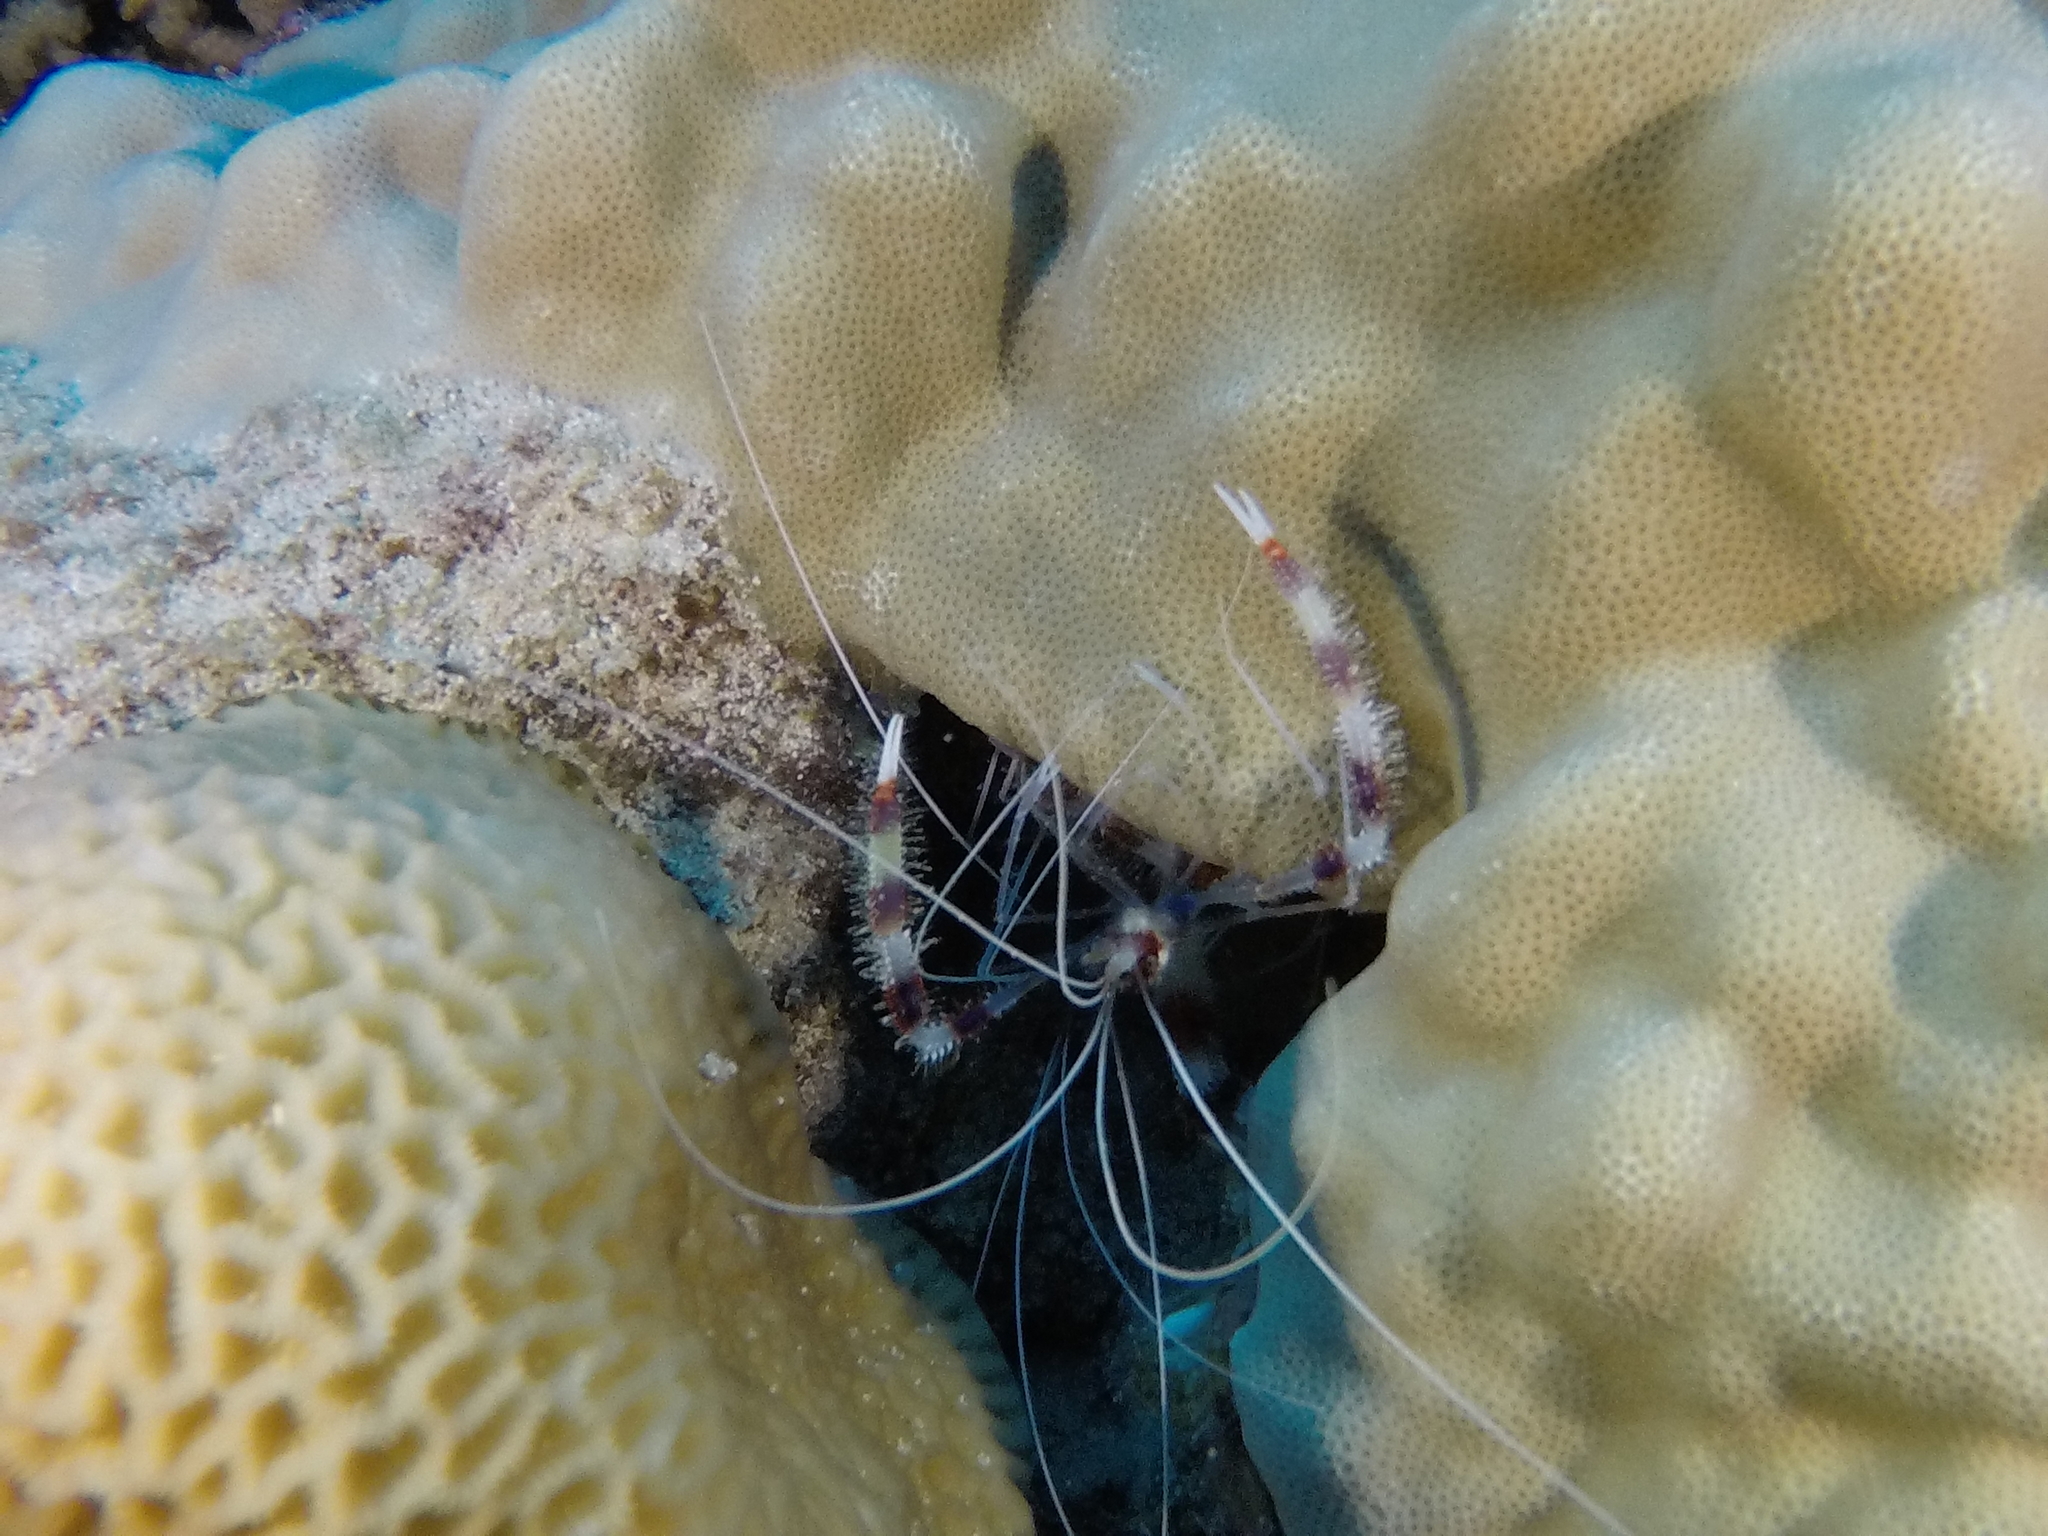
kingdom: Animalia
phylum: Arthropoda
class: Malacostraca
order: Decapoda
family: Stenopodidae
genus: Stenopus
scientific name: Stenopus hispidus
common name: Banded coral shrimp
